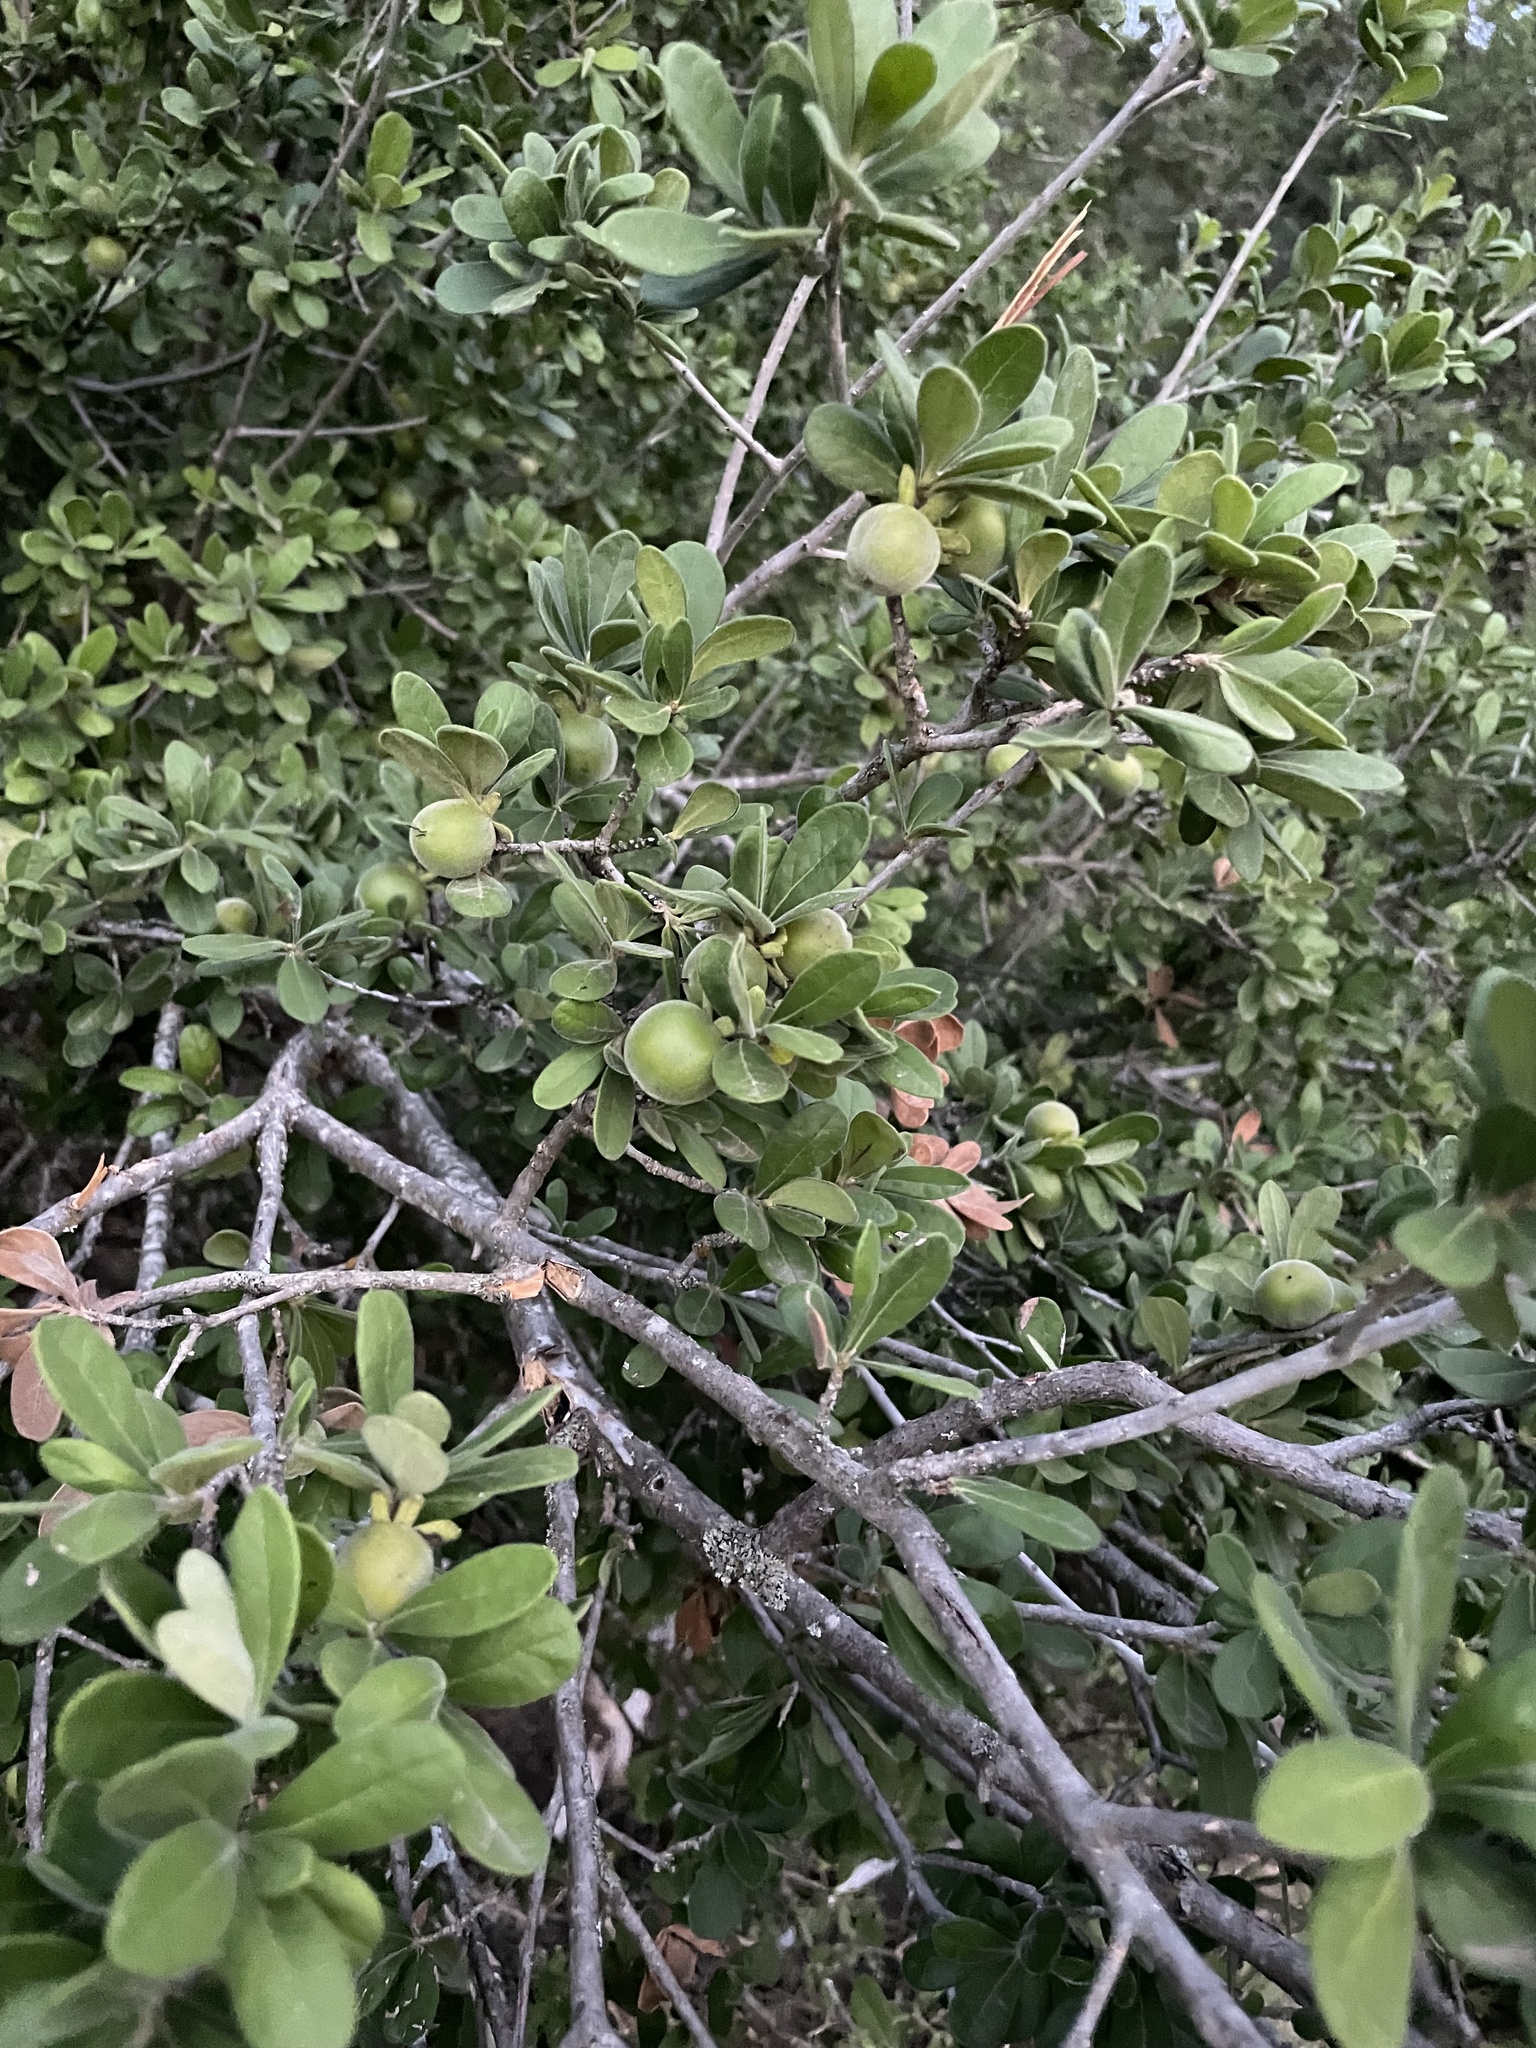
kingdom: Plantae
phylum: Tracheophyta
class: Magnoliopsida
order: Ericales
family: Ebenaceae
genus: Diospyros
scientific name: Diospyros texana
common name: Texas persimmon
